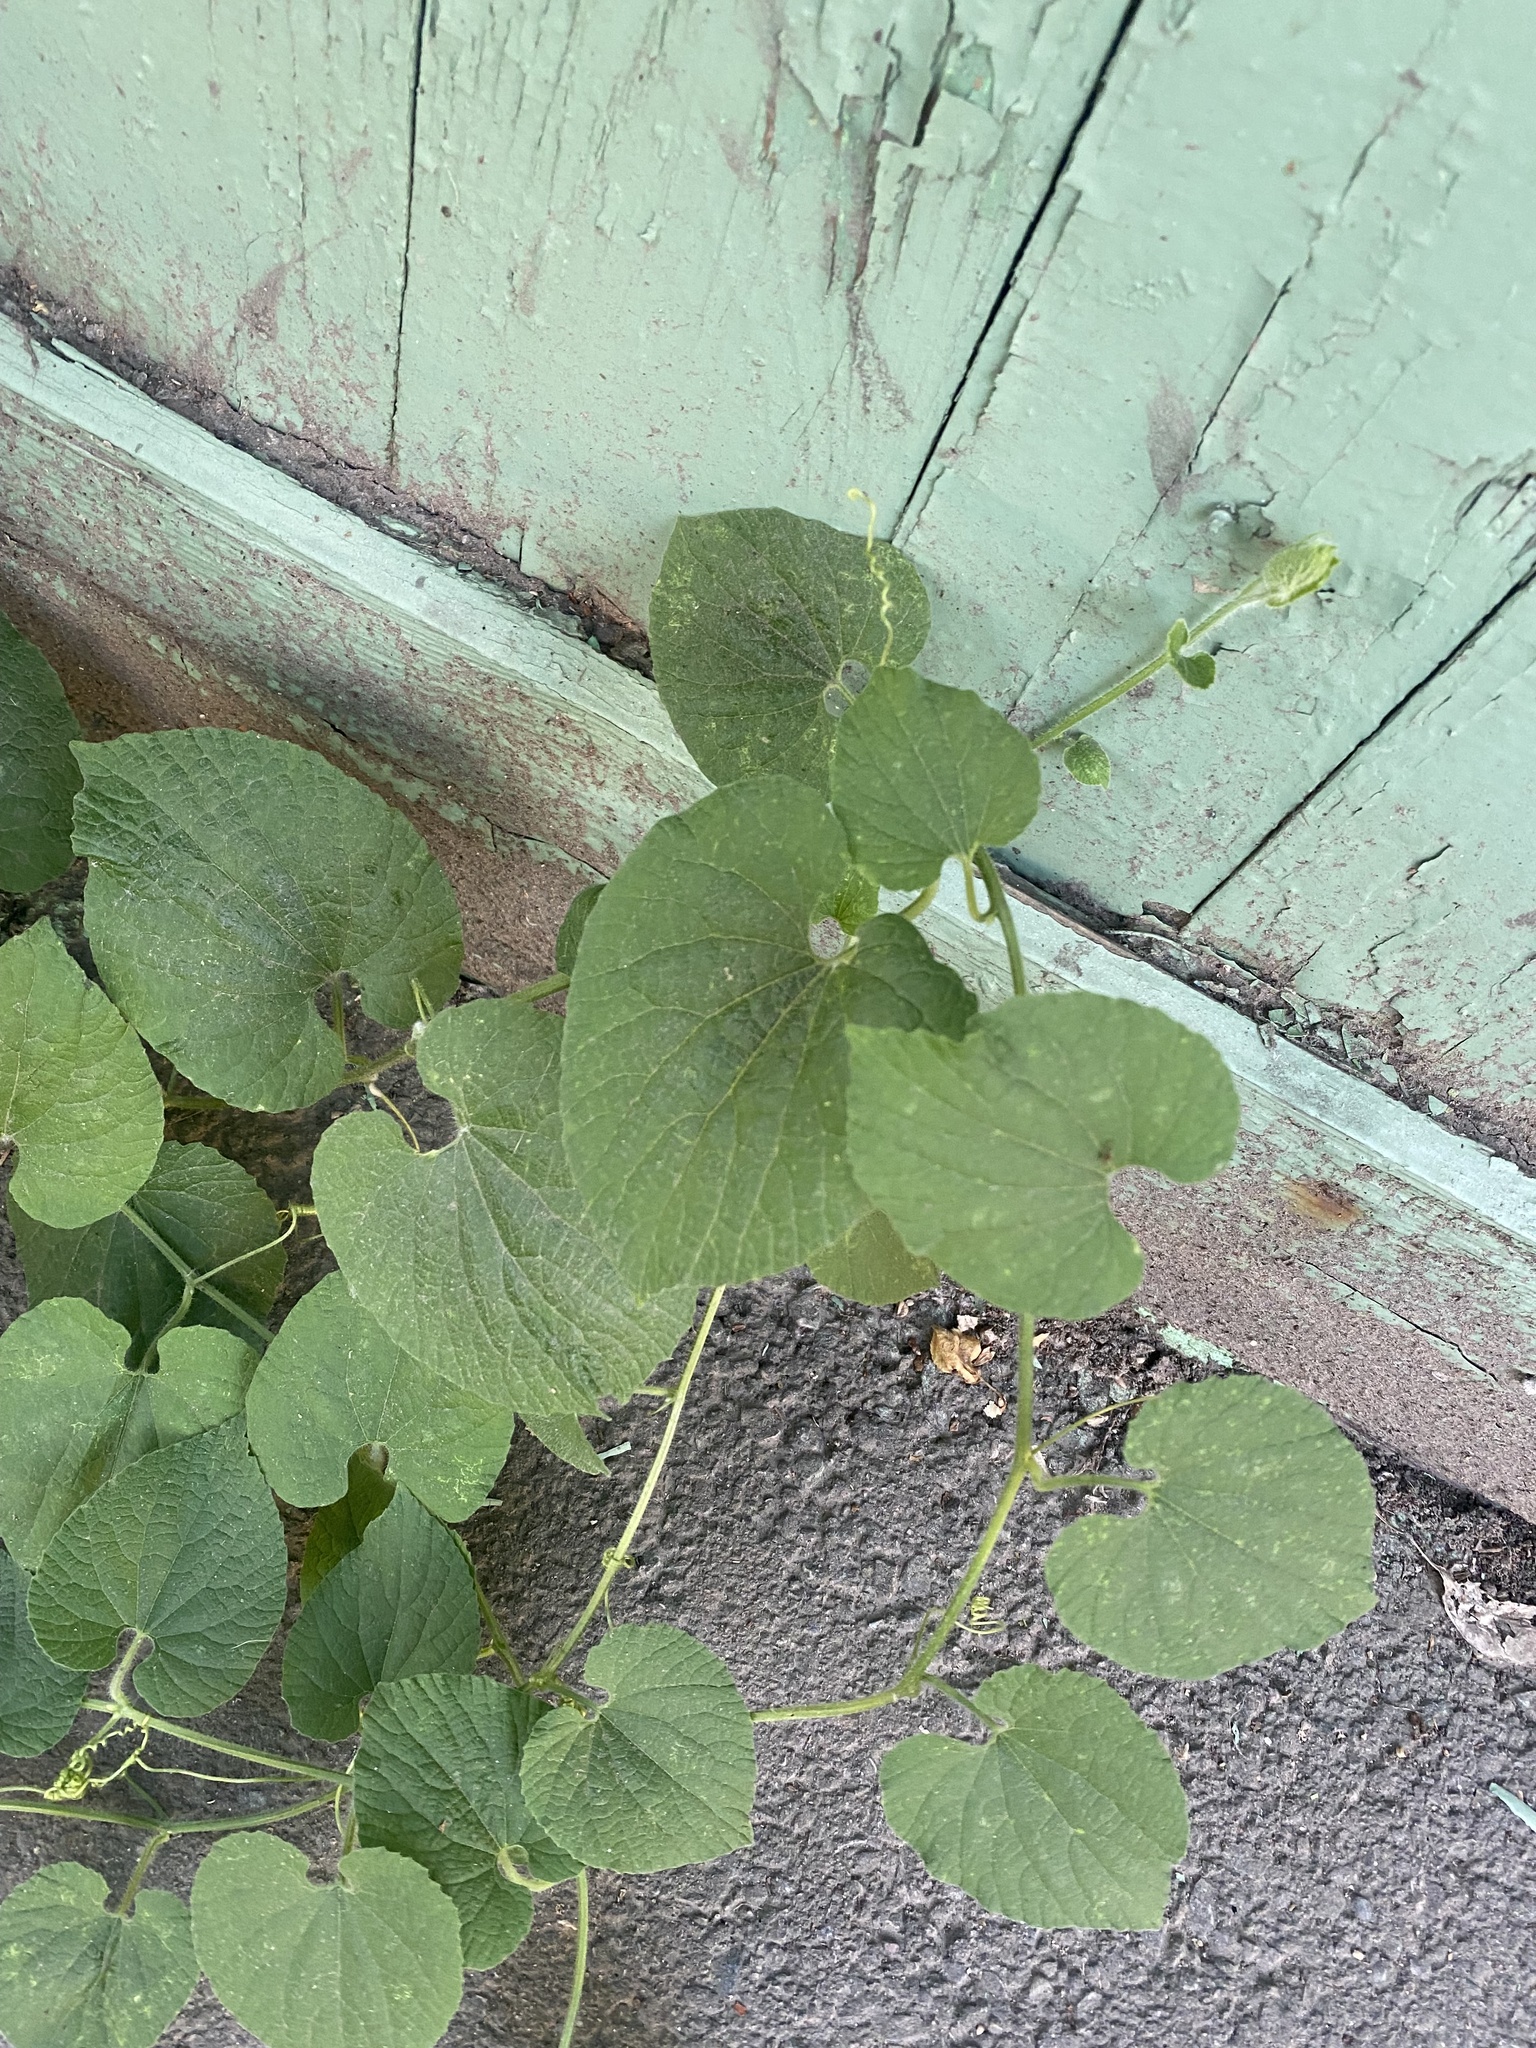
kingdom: Plantae
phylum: Tracheophyta
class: Magnoliopsida
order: Cucurbitales
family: Cucurbitaceae
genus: Thladiantha
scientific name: Thladiantha dubia
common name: Manchu tubergourd
